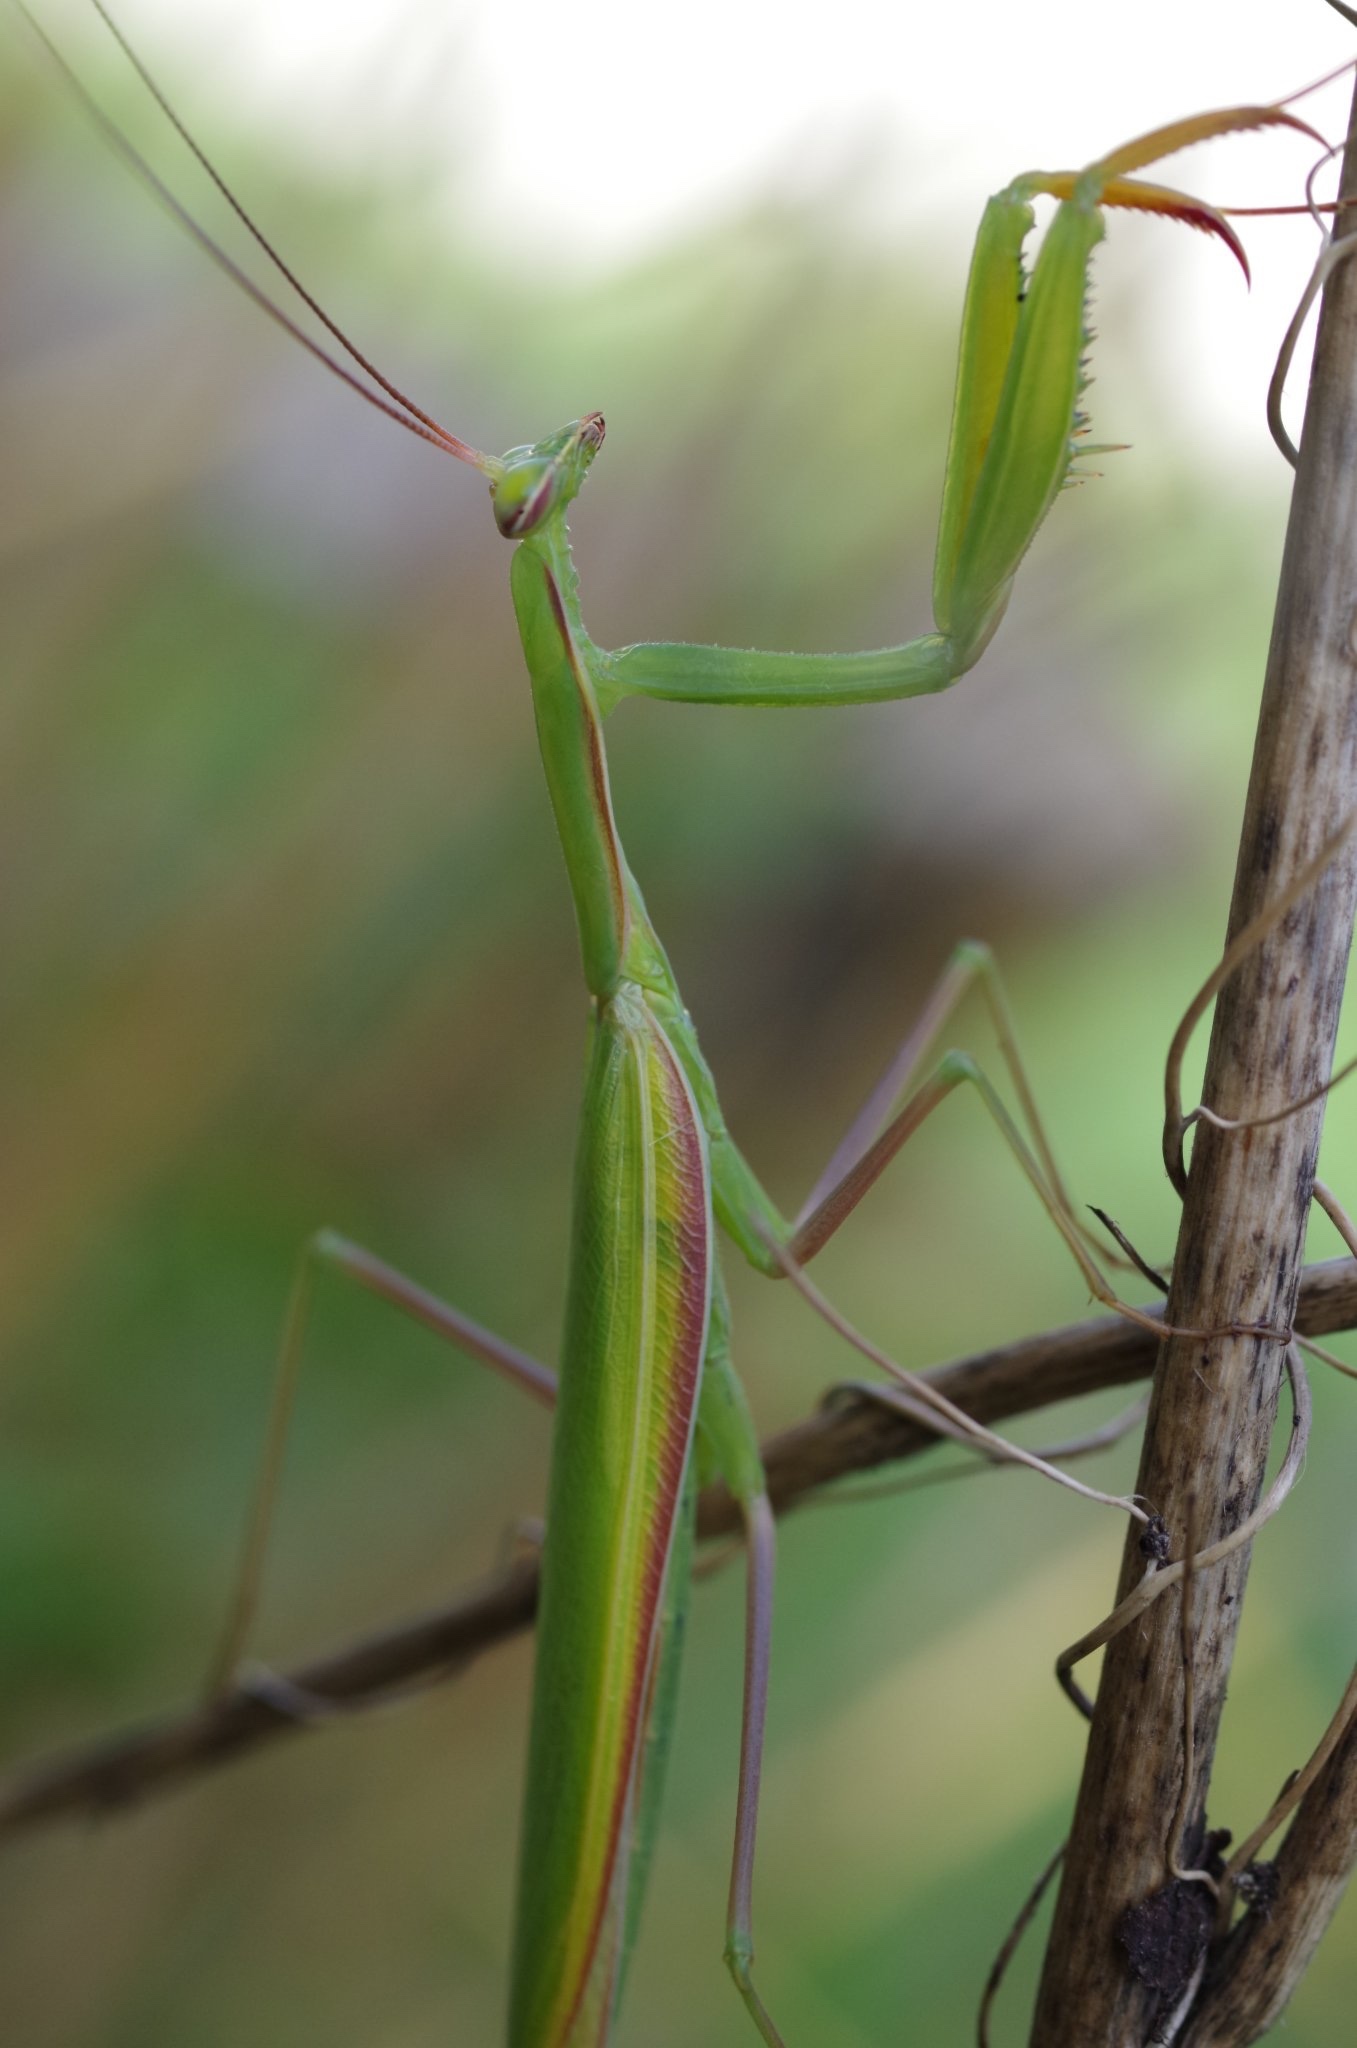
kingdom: Animalia
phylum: Arthropoda
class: Insecta
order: Mantodea
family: Mantidae
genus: Mantis
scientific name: Mantis religiosa
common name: Praying mantis
